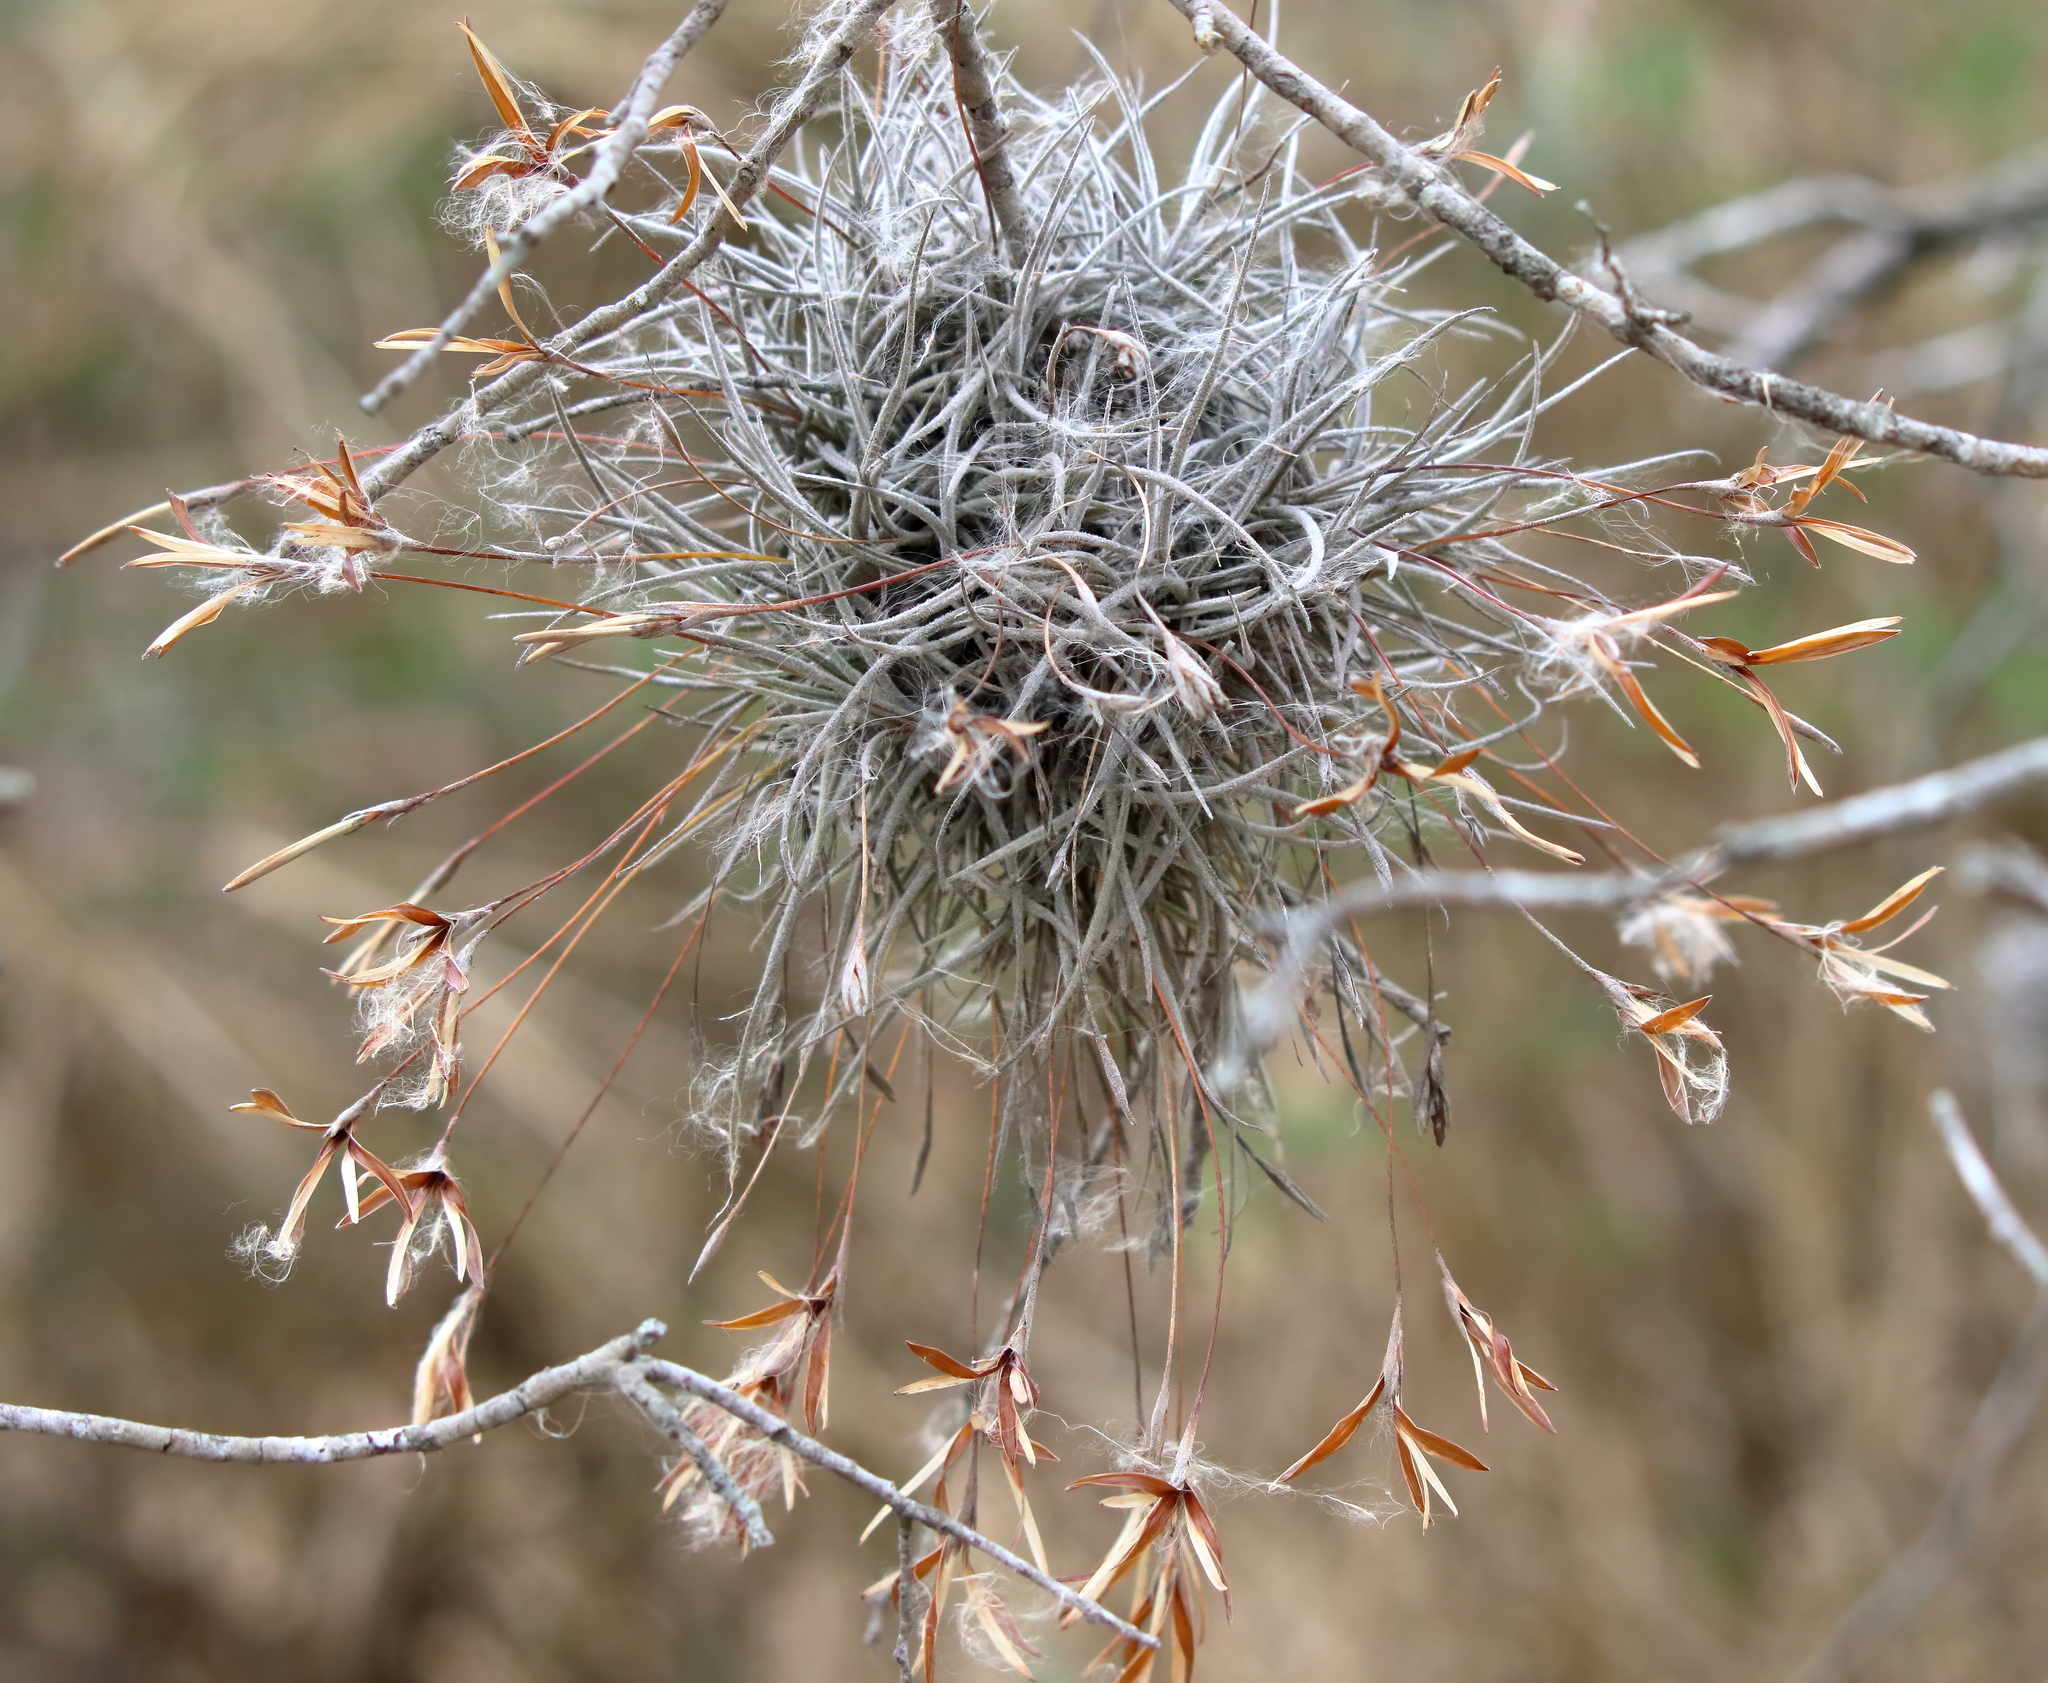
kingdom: Plantae
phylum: Tracheophyta
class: Liliopsida
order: Poales
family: Bromeliaceae
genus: Tillandsia
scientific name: Tillandsia recurvata
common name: Small ballmoss
